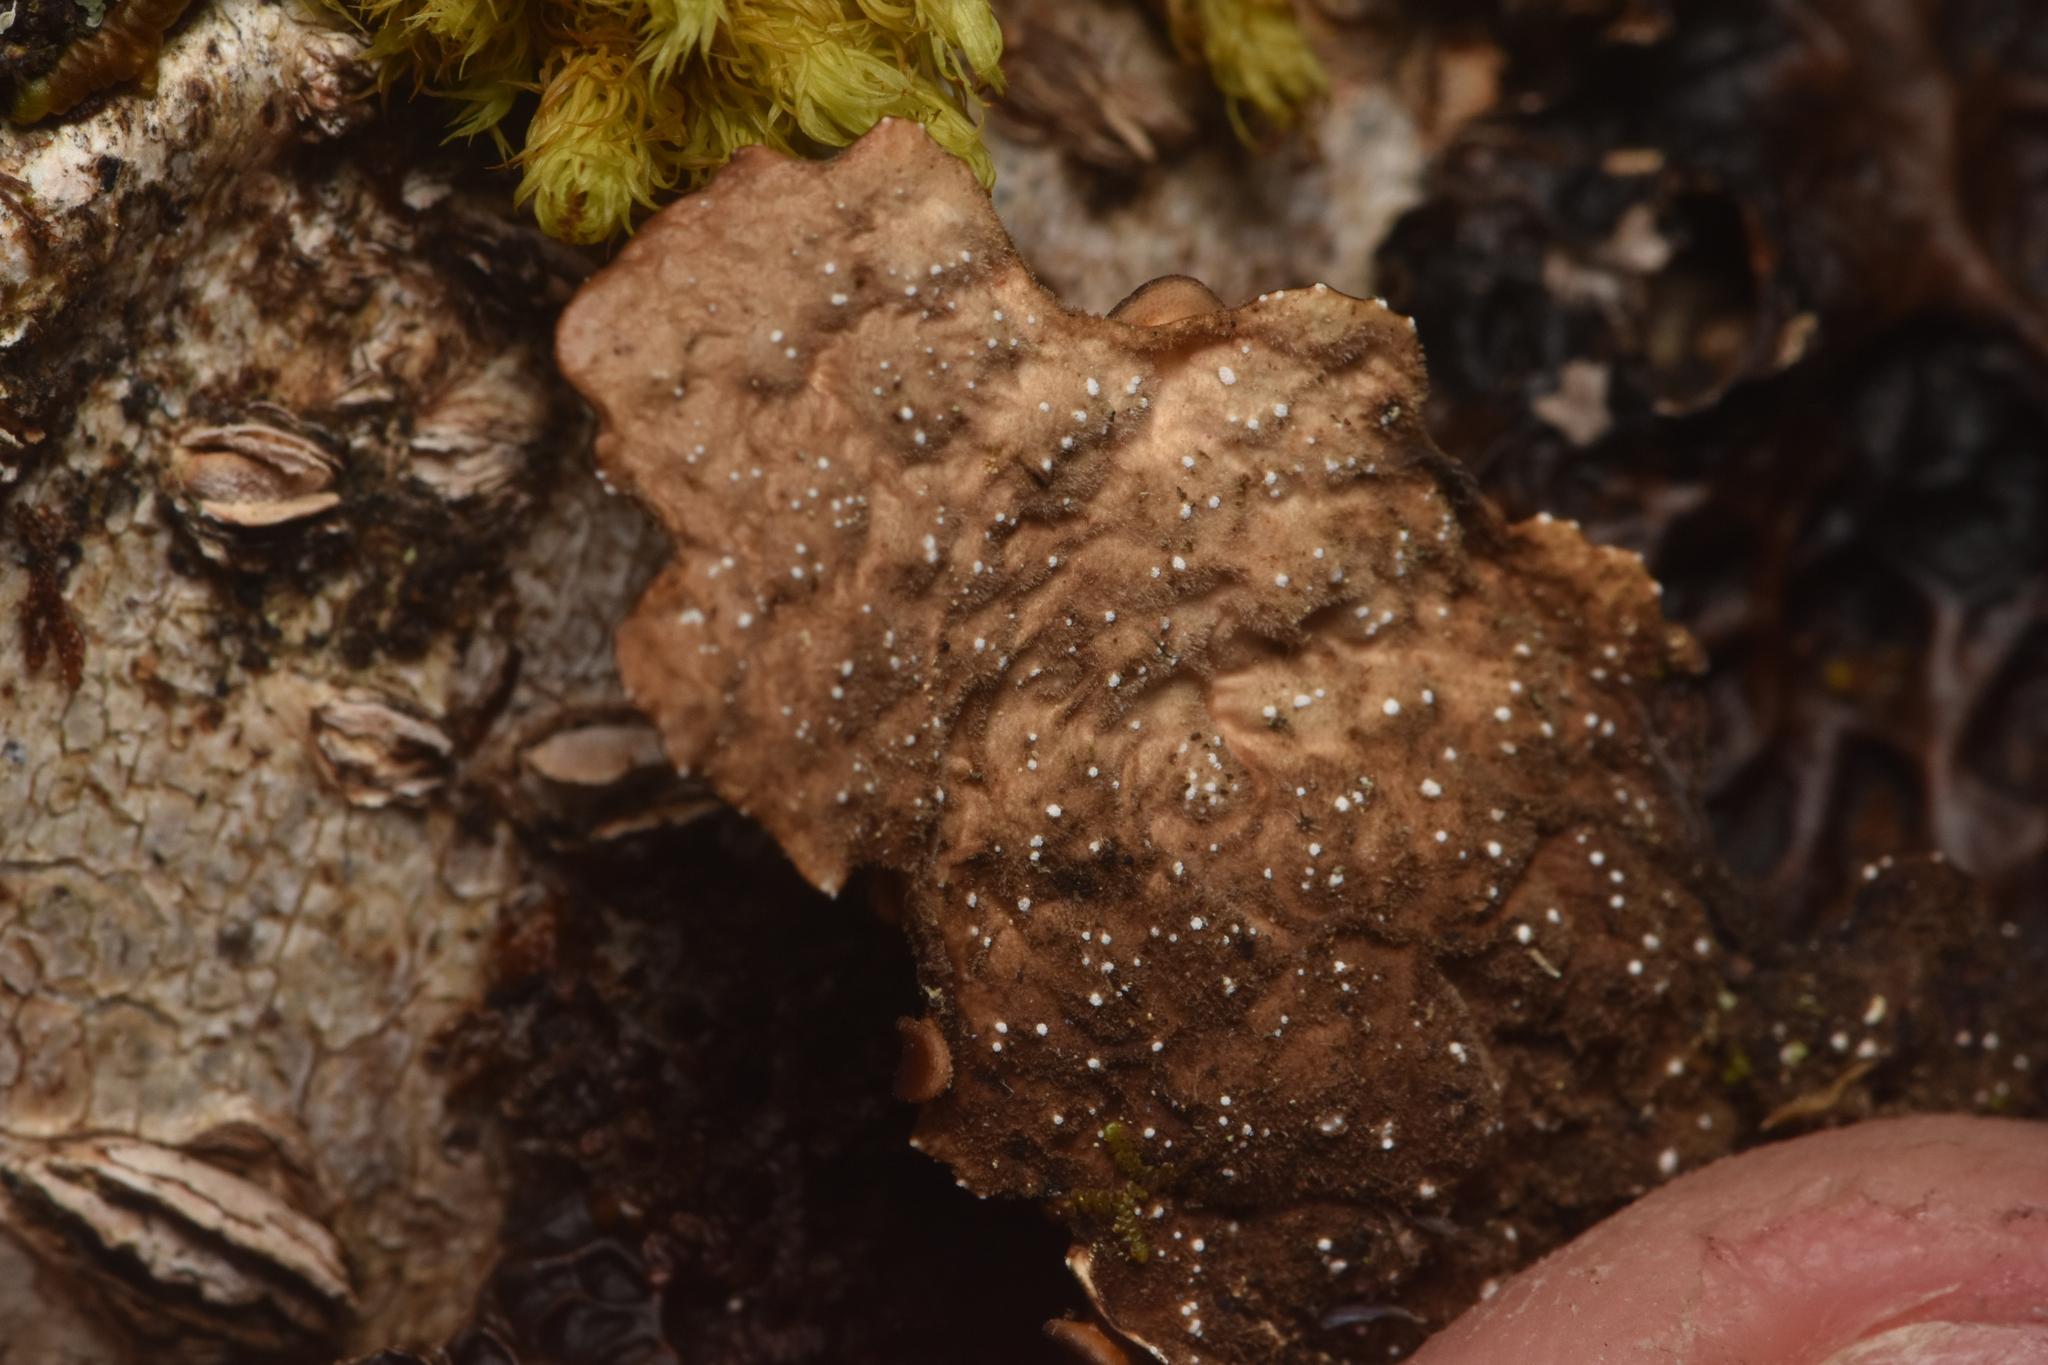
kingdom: Fungi
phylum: Ascomycota
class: Lecanoromycetes
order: Peltigerales
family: Lobariaceae
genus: Lobaria
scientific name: Lobaria anthraspis
